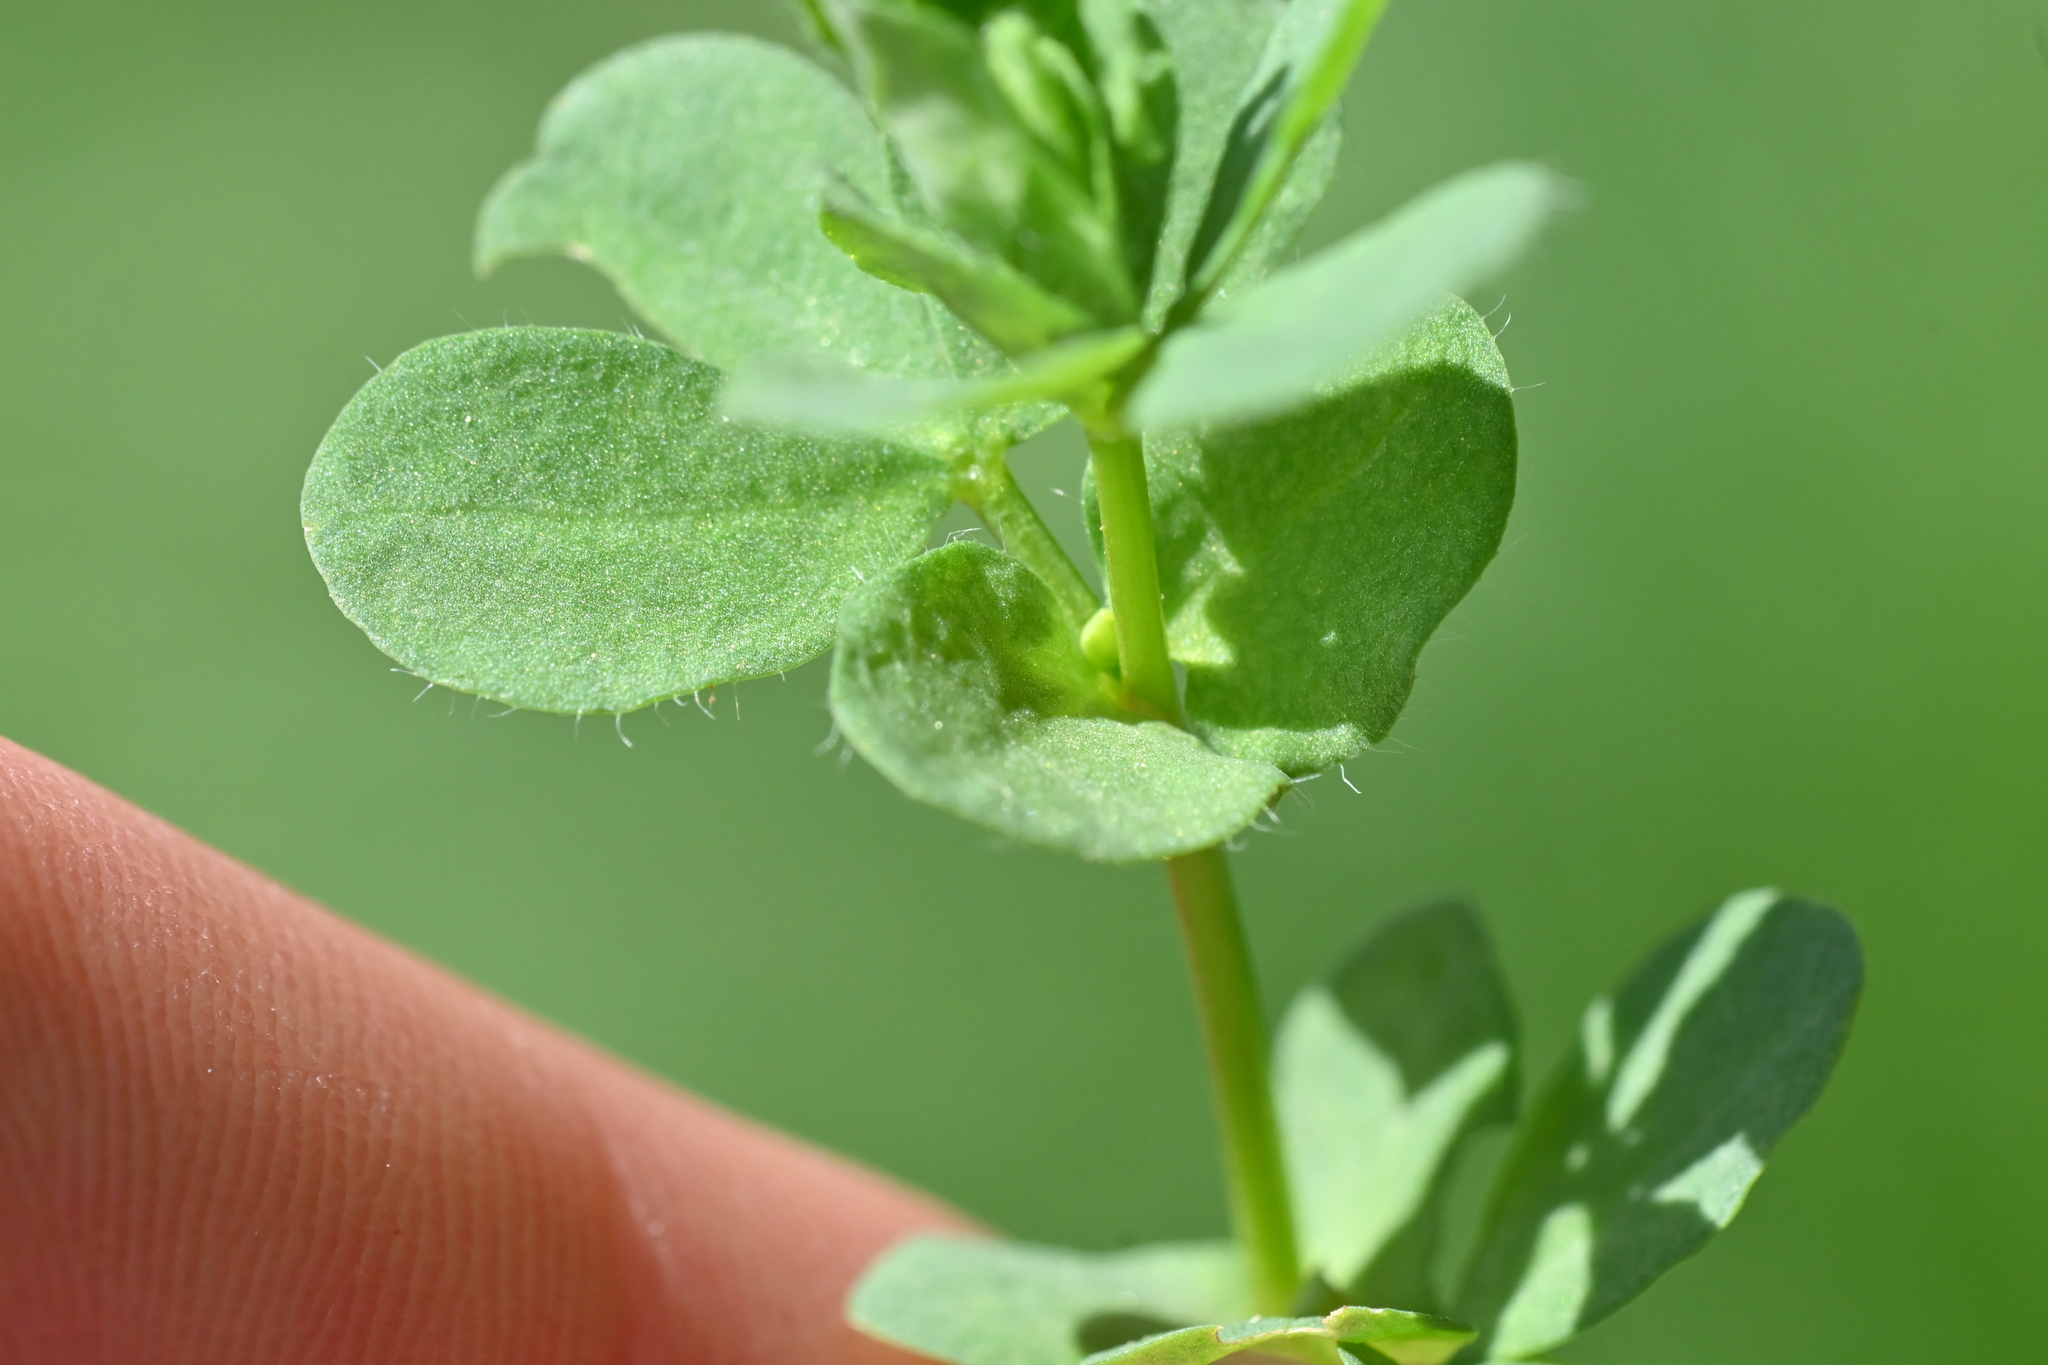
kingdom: Plantae
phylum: Tracheophyta
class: Magnoliopsida
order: Fabales
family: Fabaceae
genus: Lotus
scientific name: Lotus corniculatus
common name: Common bird's-foot-trefoil
